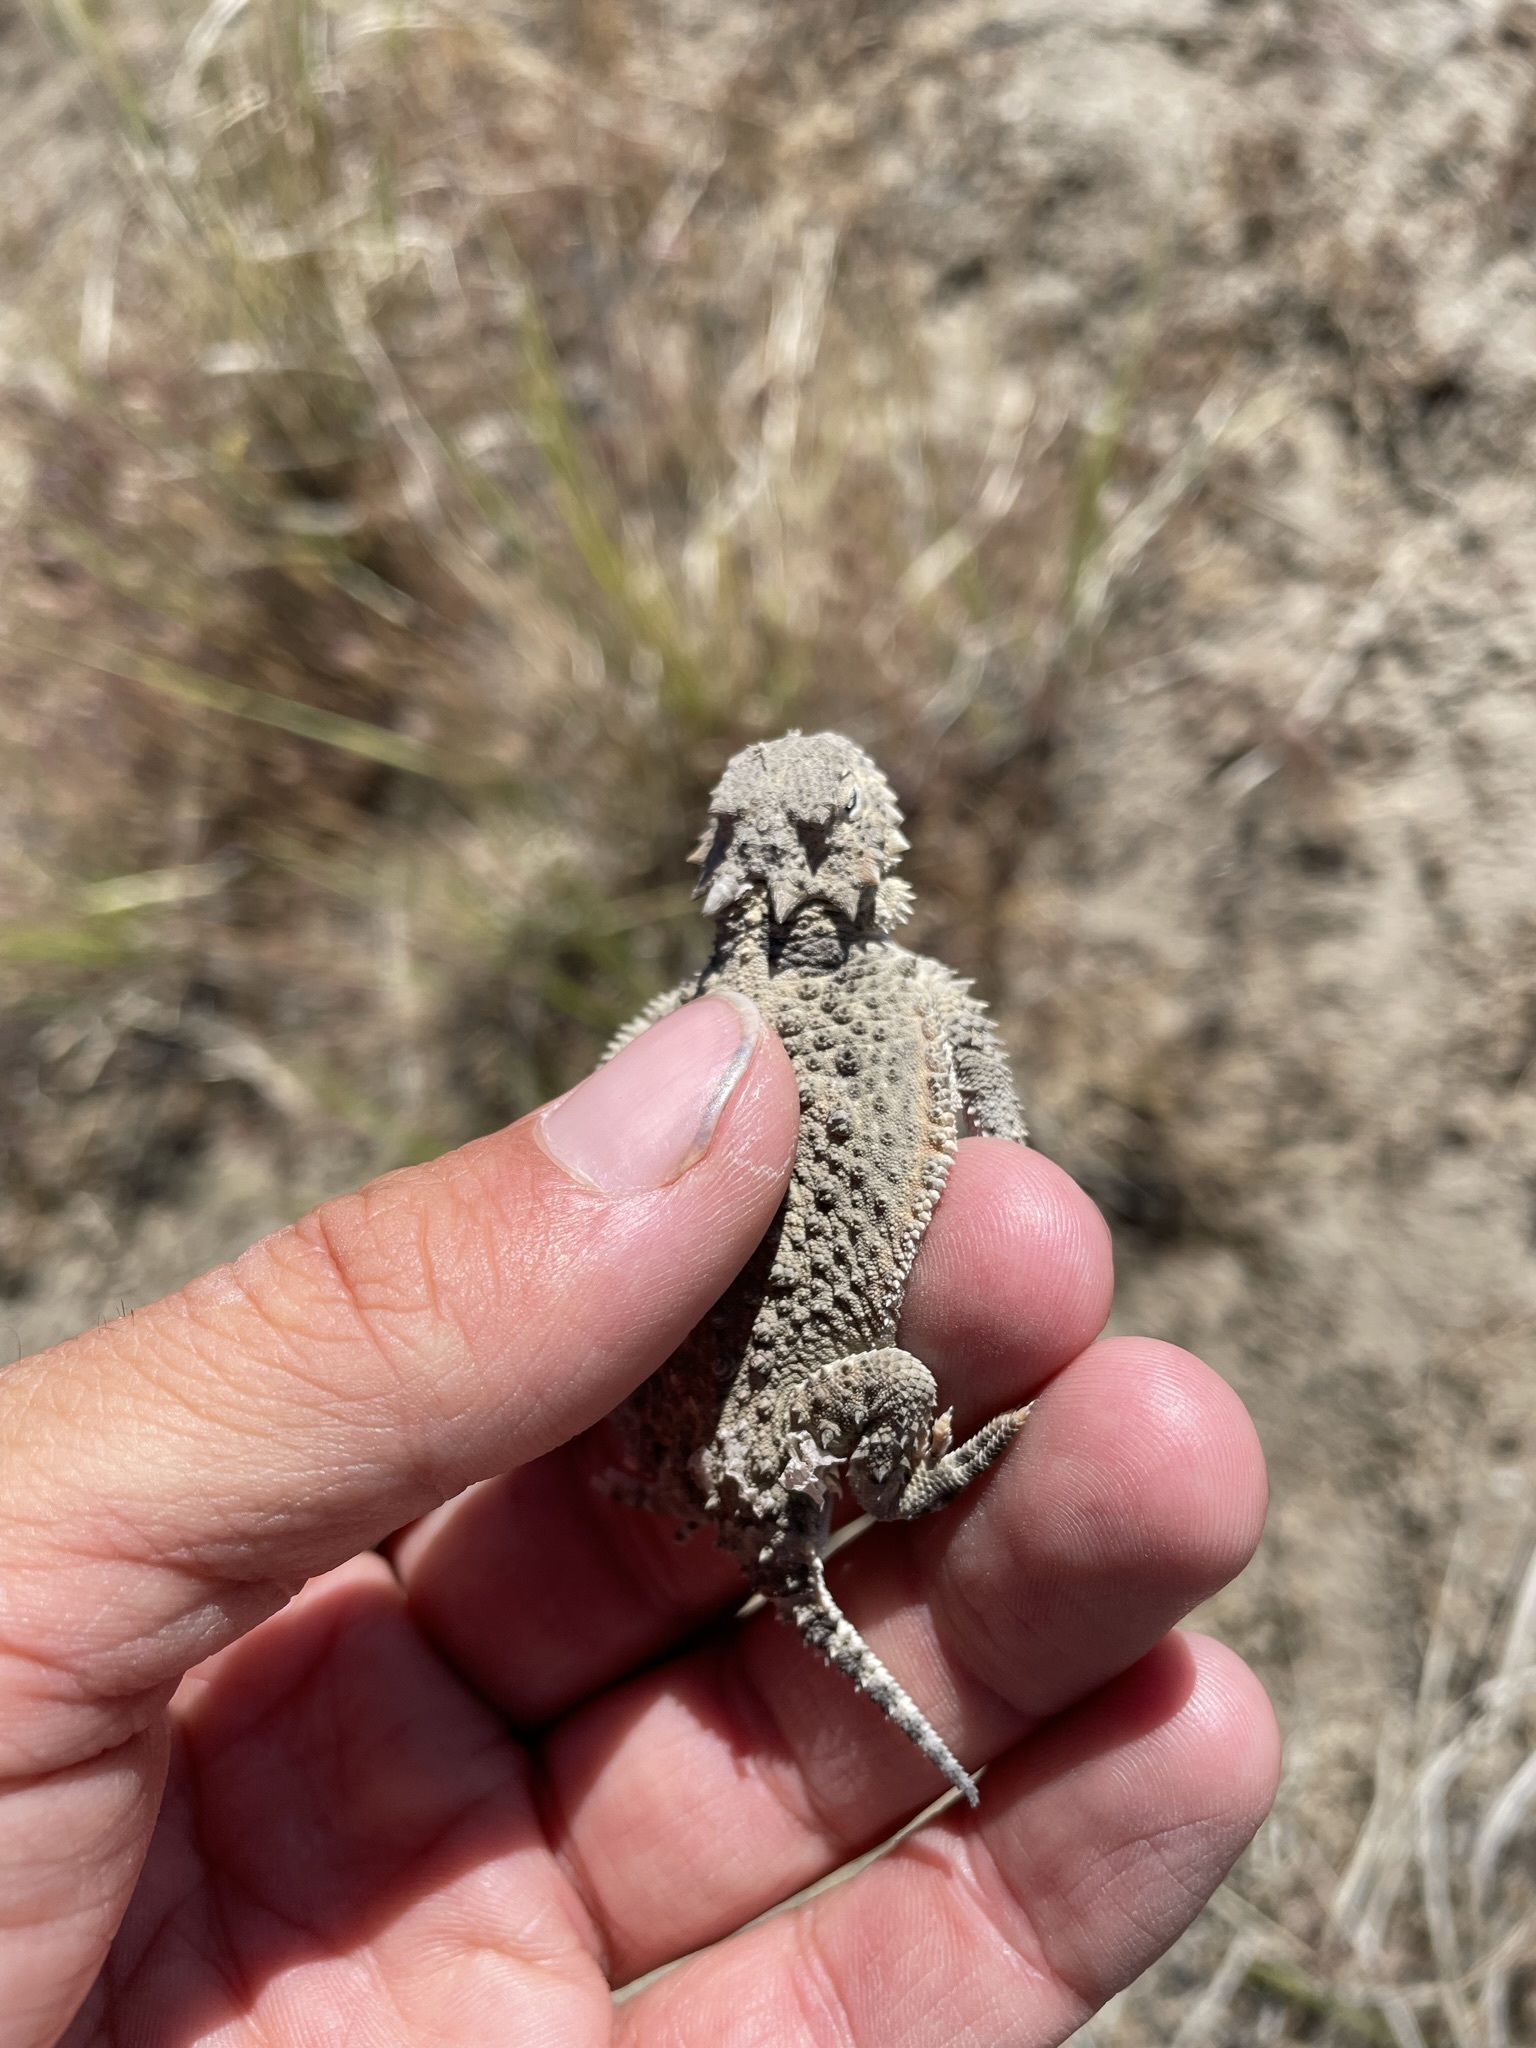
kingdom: Animalia
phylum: Chordata
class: Squamata
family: Phrynosomatidae
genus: Phrynosoma
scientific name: Phrynosoma platyrhinos
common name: Desert horned lizard
